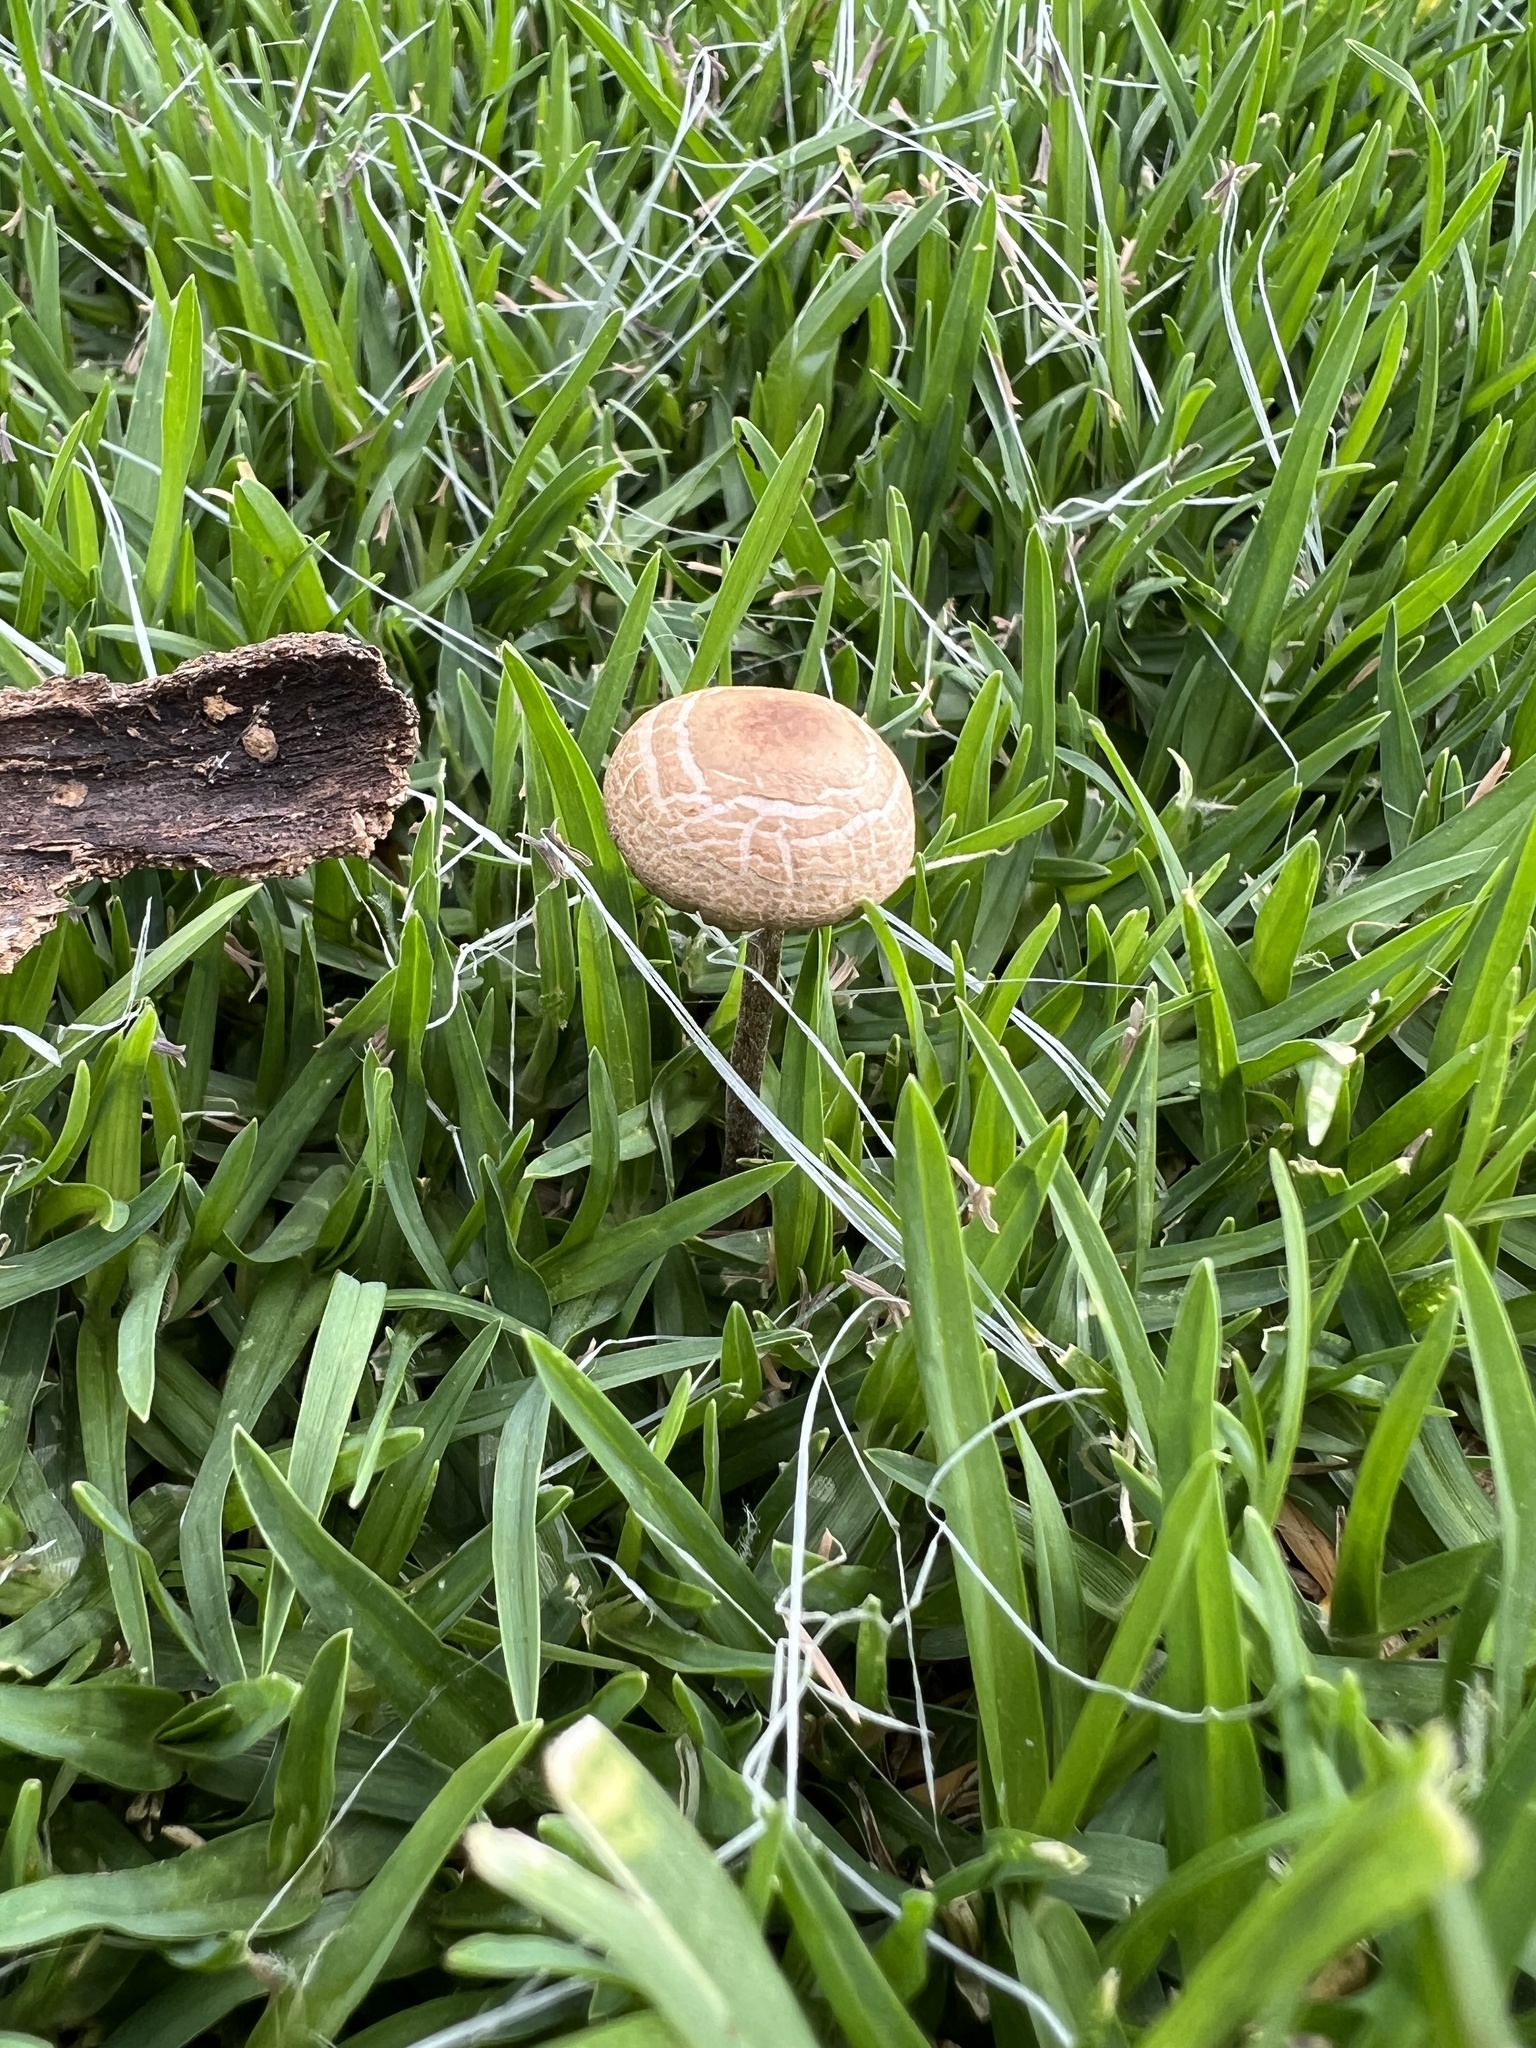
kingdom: Fungi
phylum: Basidiomycota
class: Agaricomycetes
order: Agaricales
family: Bolbitiaceae
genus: Panaeolus
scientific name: Panaeolus cinctulus
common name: Banded mottlegill
